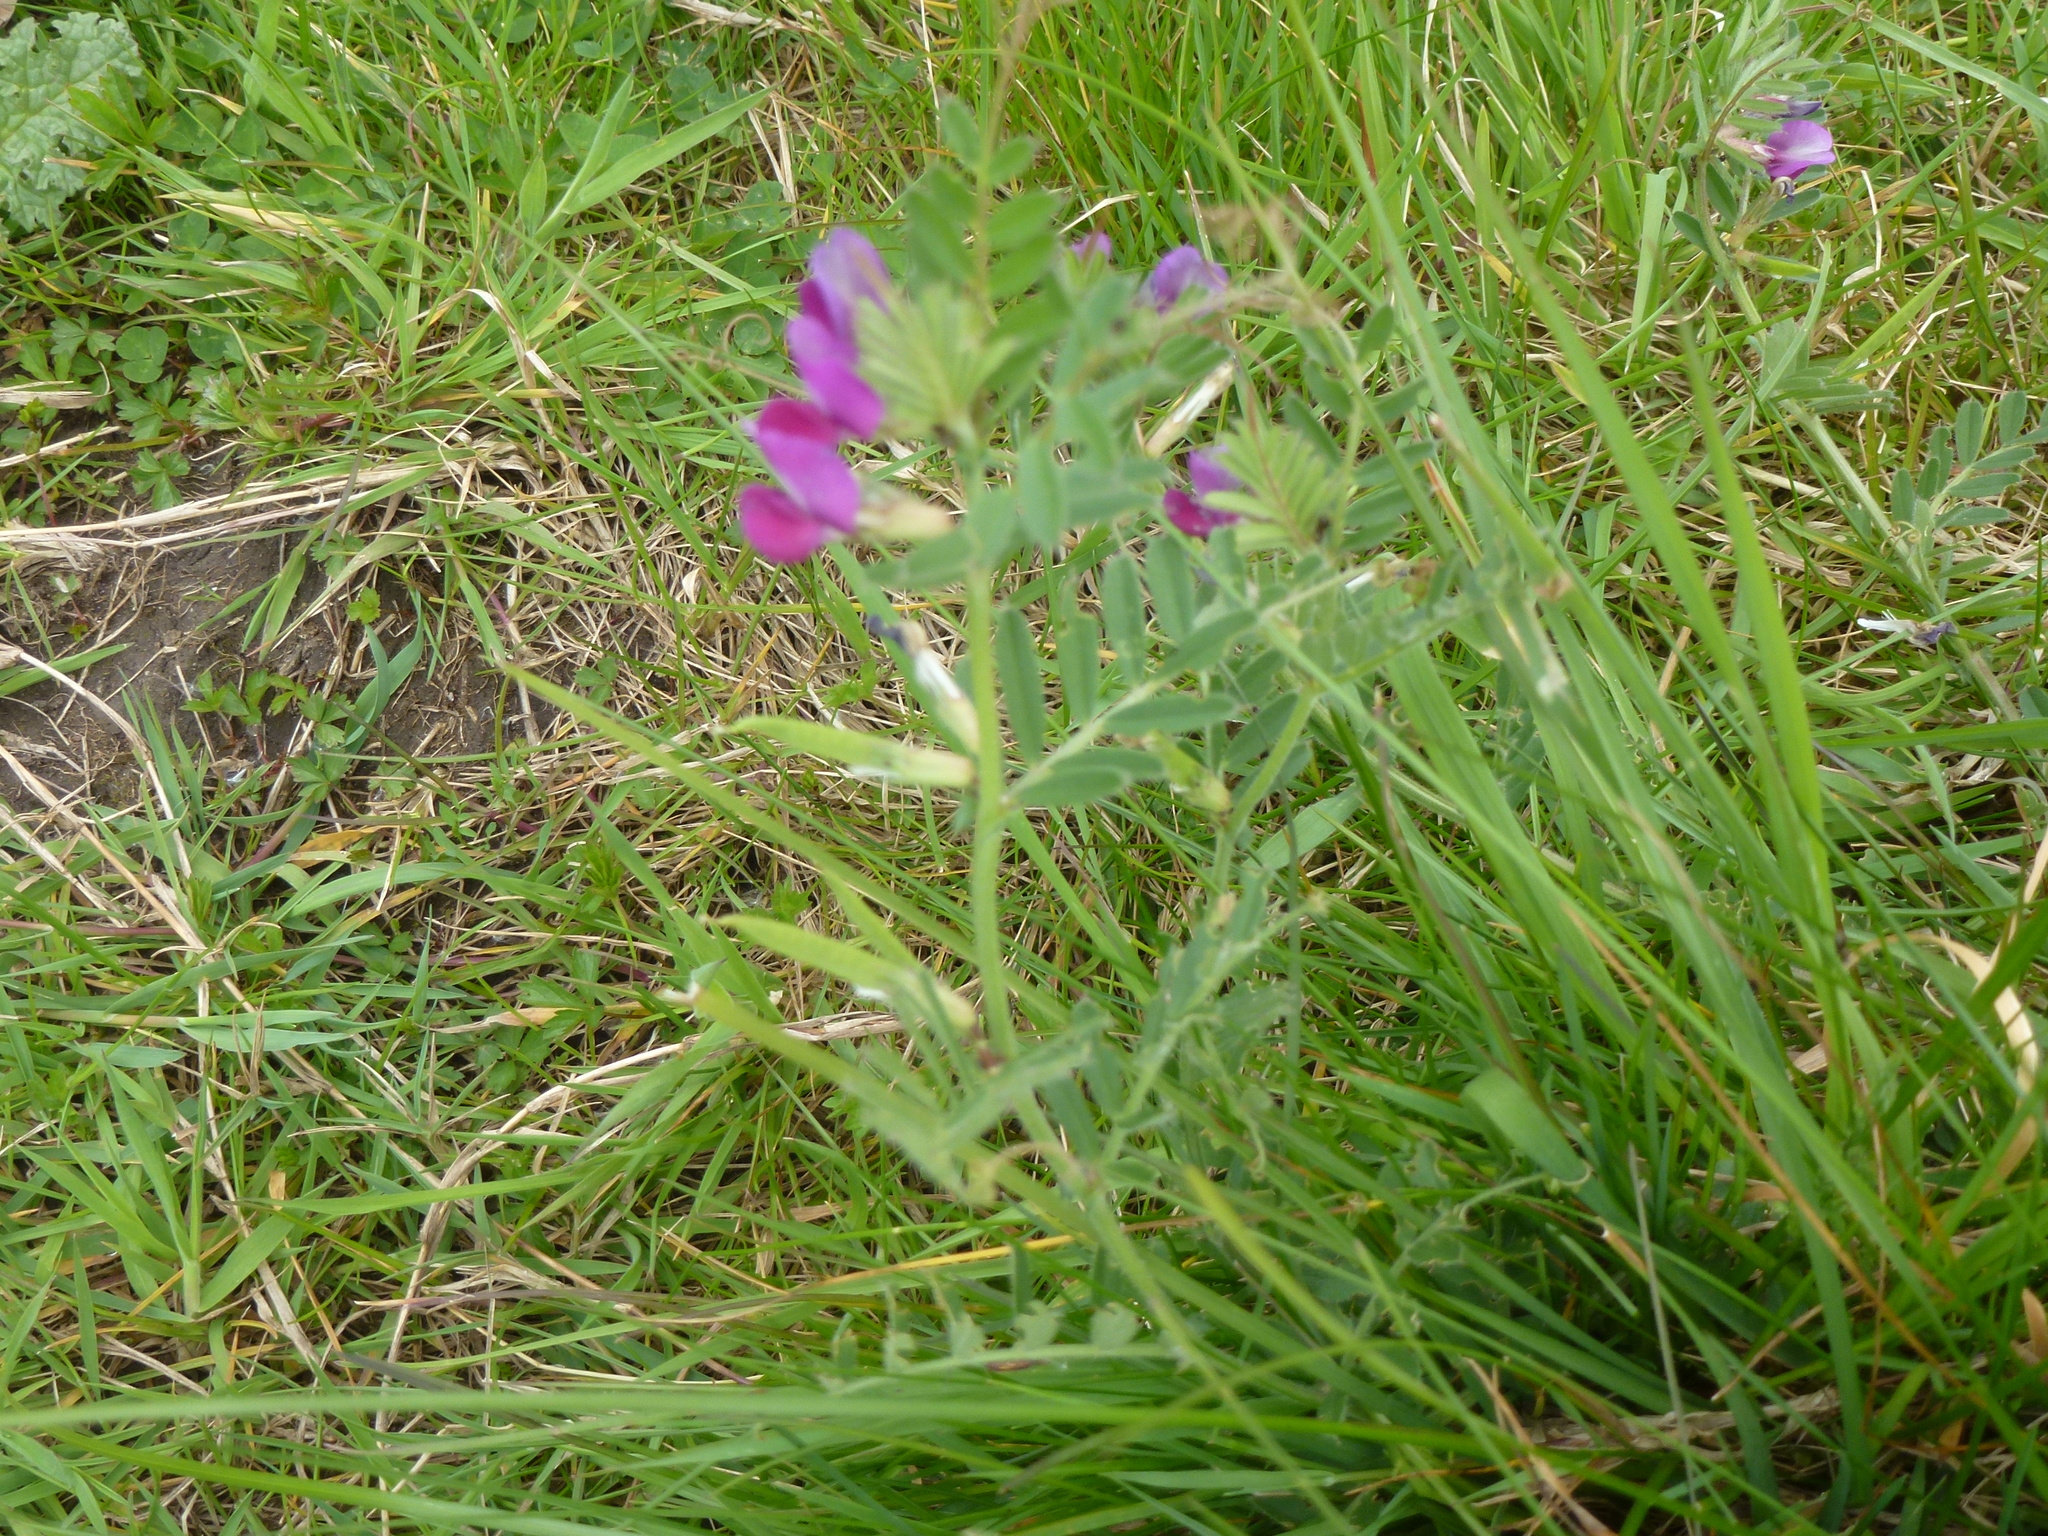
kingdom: Plantae
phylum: Tracheophyta
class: Magnoliopsida
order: Fabales
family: Fabaceae
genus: Vicia
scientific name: Vicia sativa
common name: Garden vetch
